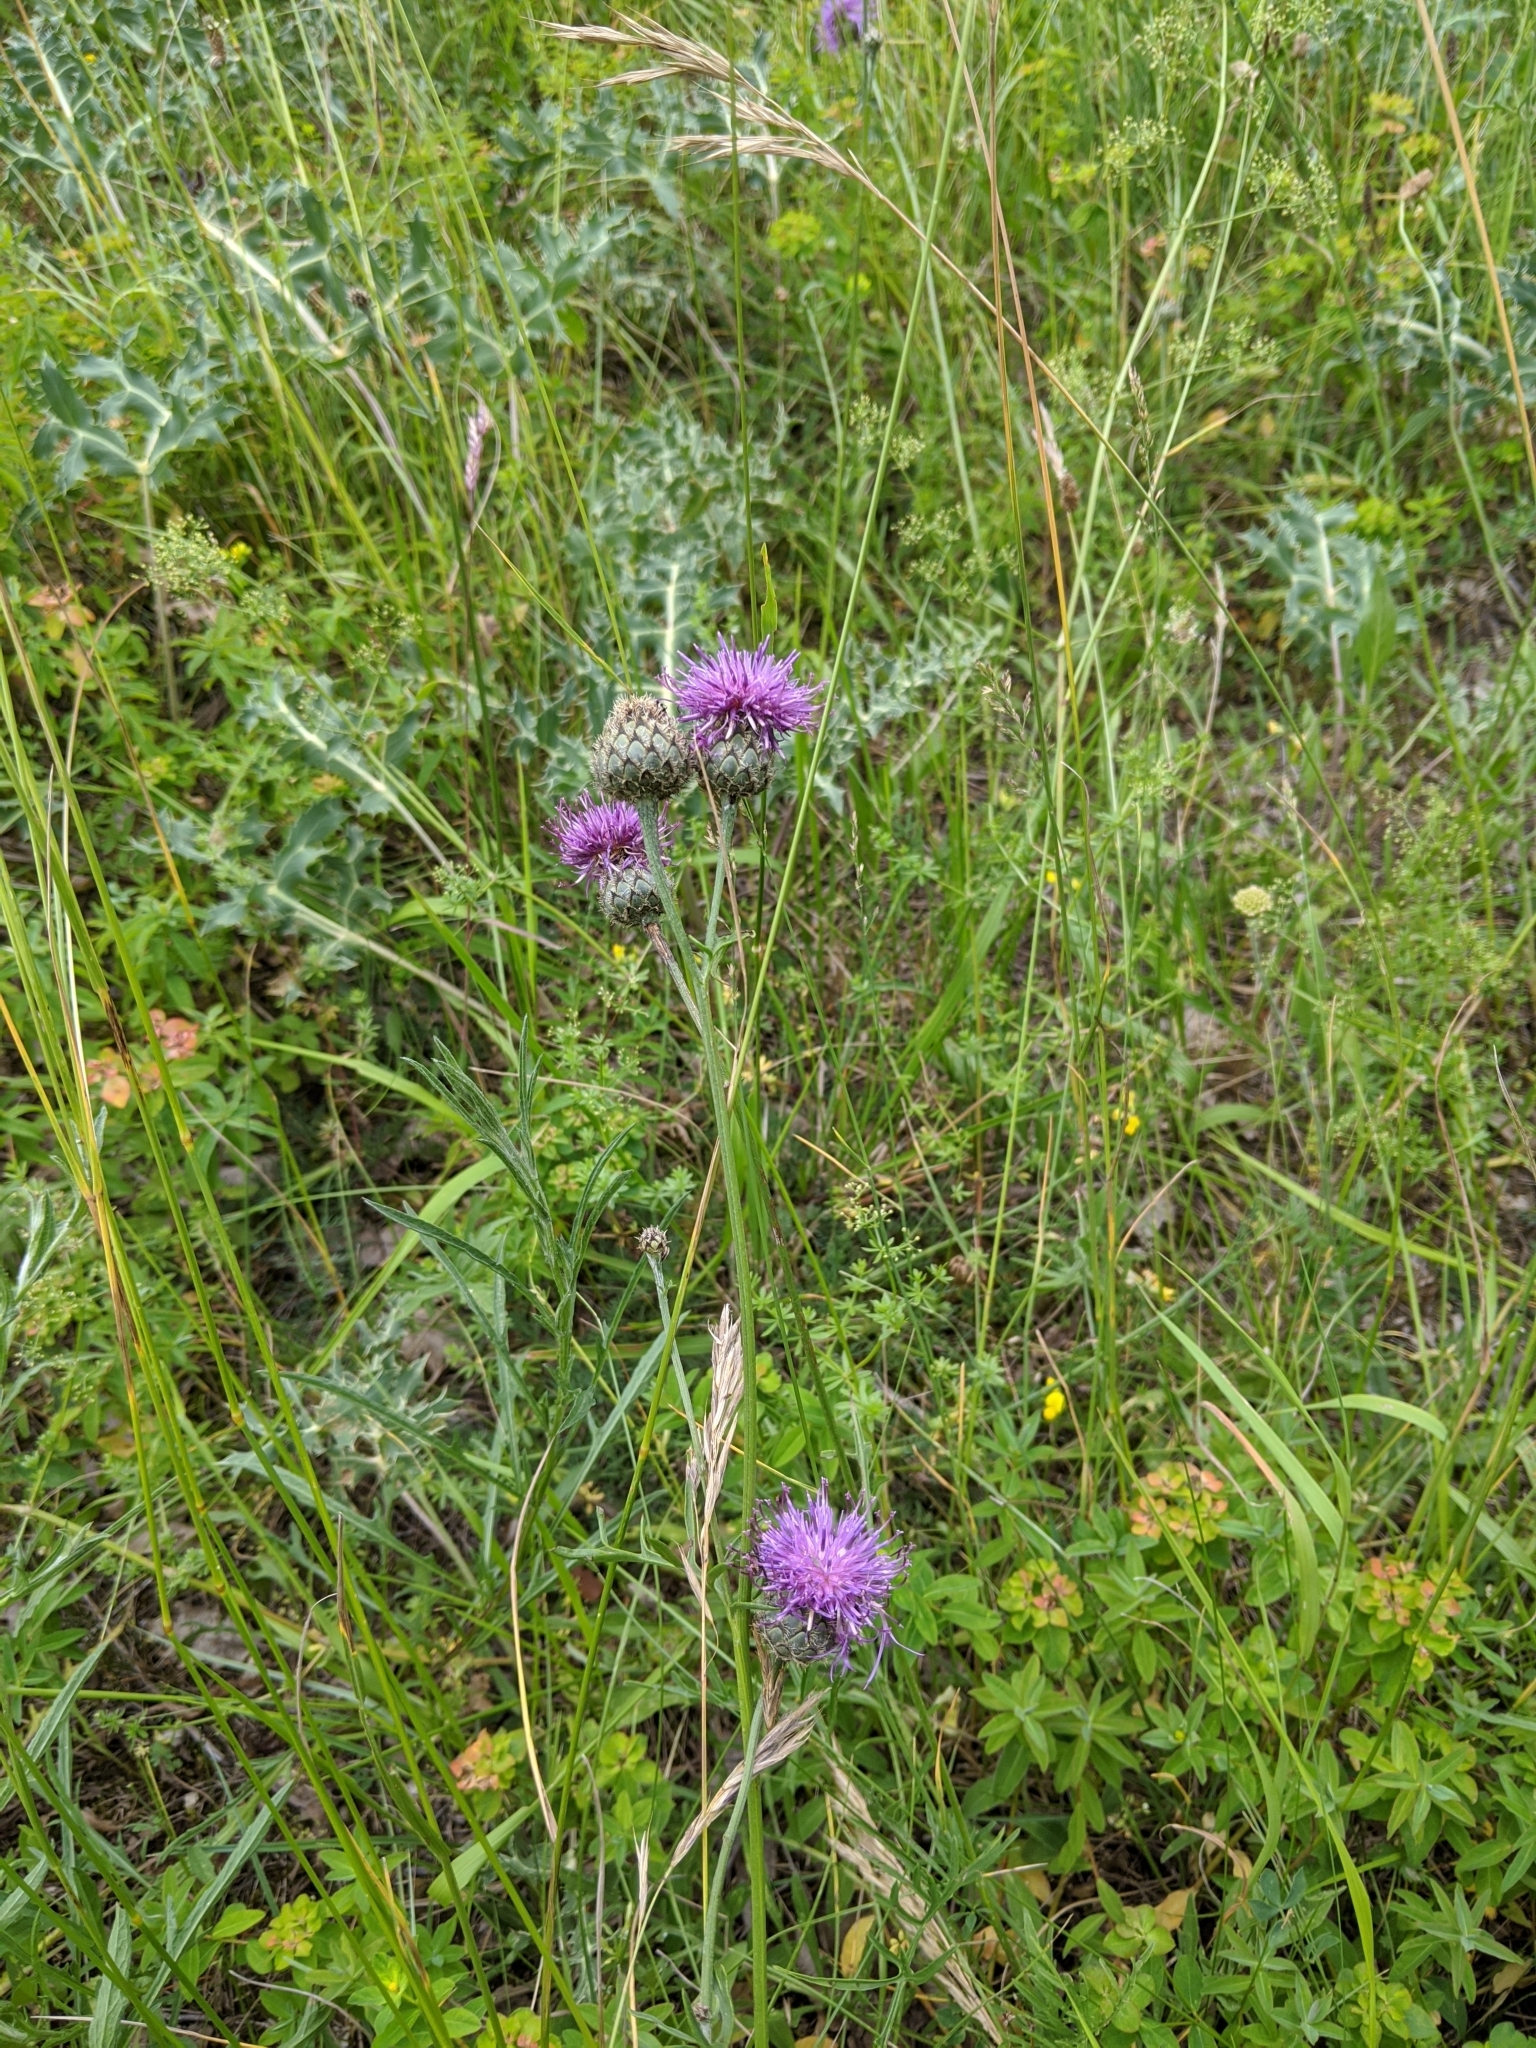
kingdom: Plantae
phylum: Tracheophyta
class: Magnoliopsida
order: Asterales
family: Asteraceae
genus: Centaurea
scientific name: Centaurea scabiosa
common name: Greater knapweed
